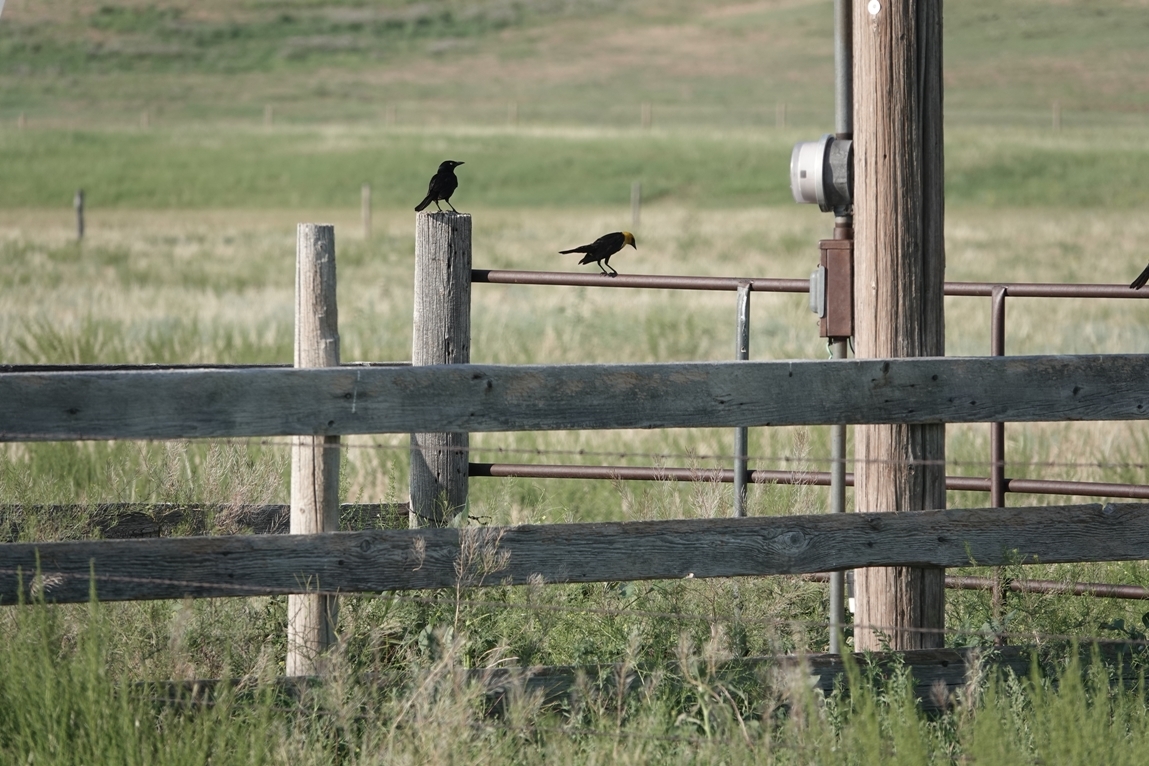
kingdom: Animalia
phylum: Chordata
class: Aves
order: Passeriformes
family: Icteridae
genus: Xanthocephalus
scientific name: Xanthocephalus xanthocephalus
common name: Yellow-headed blackbird
